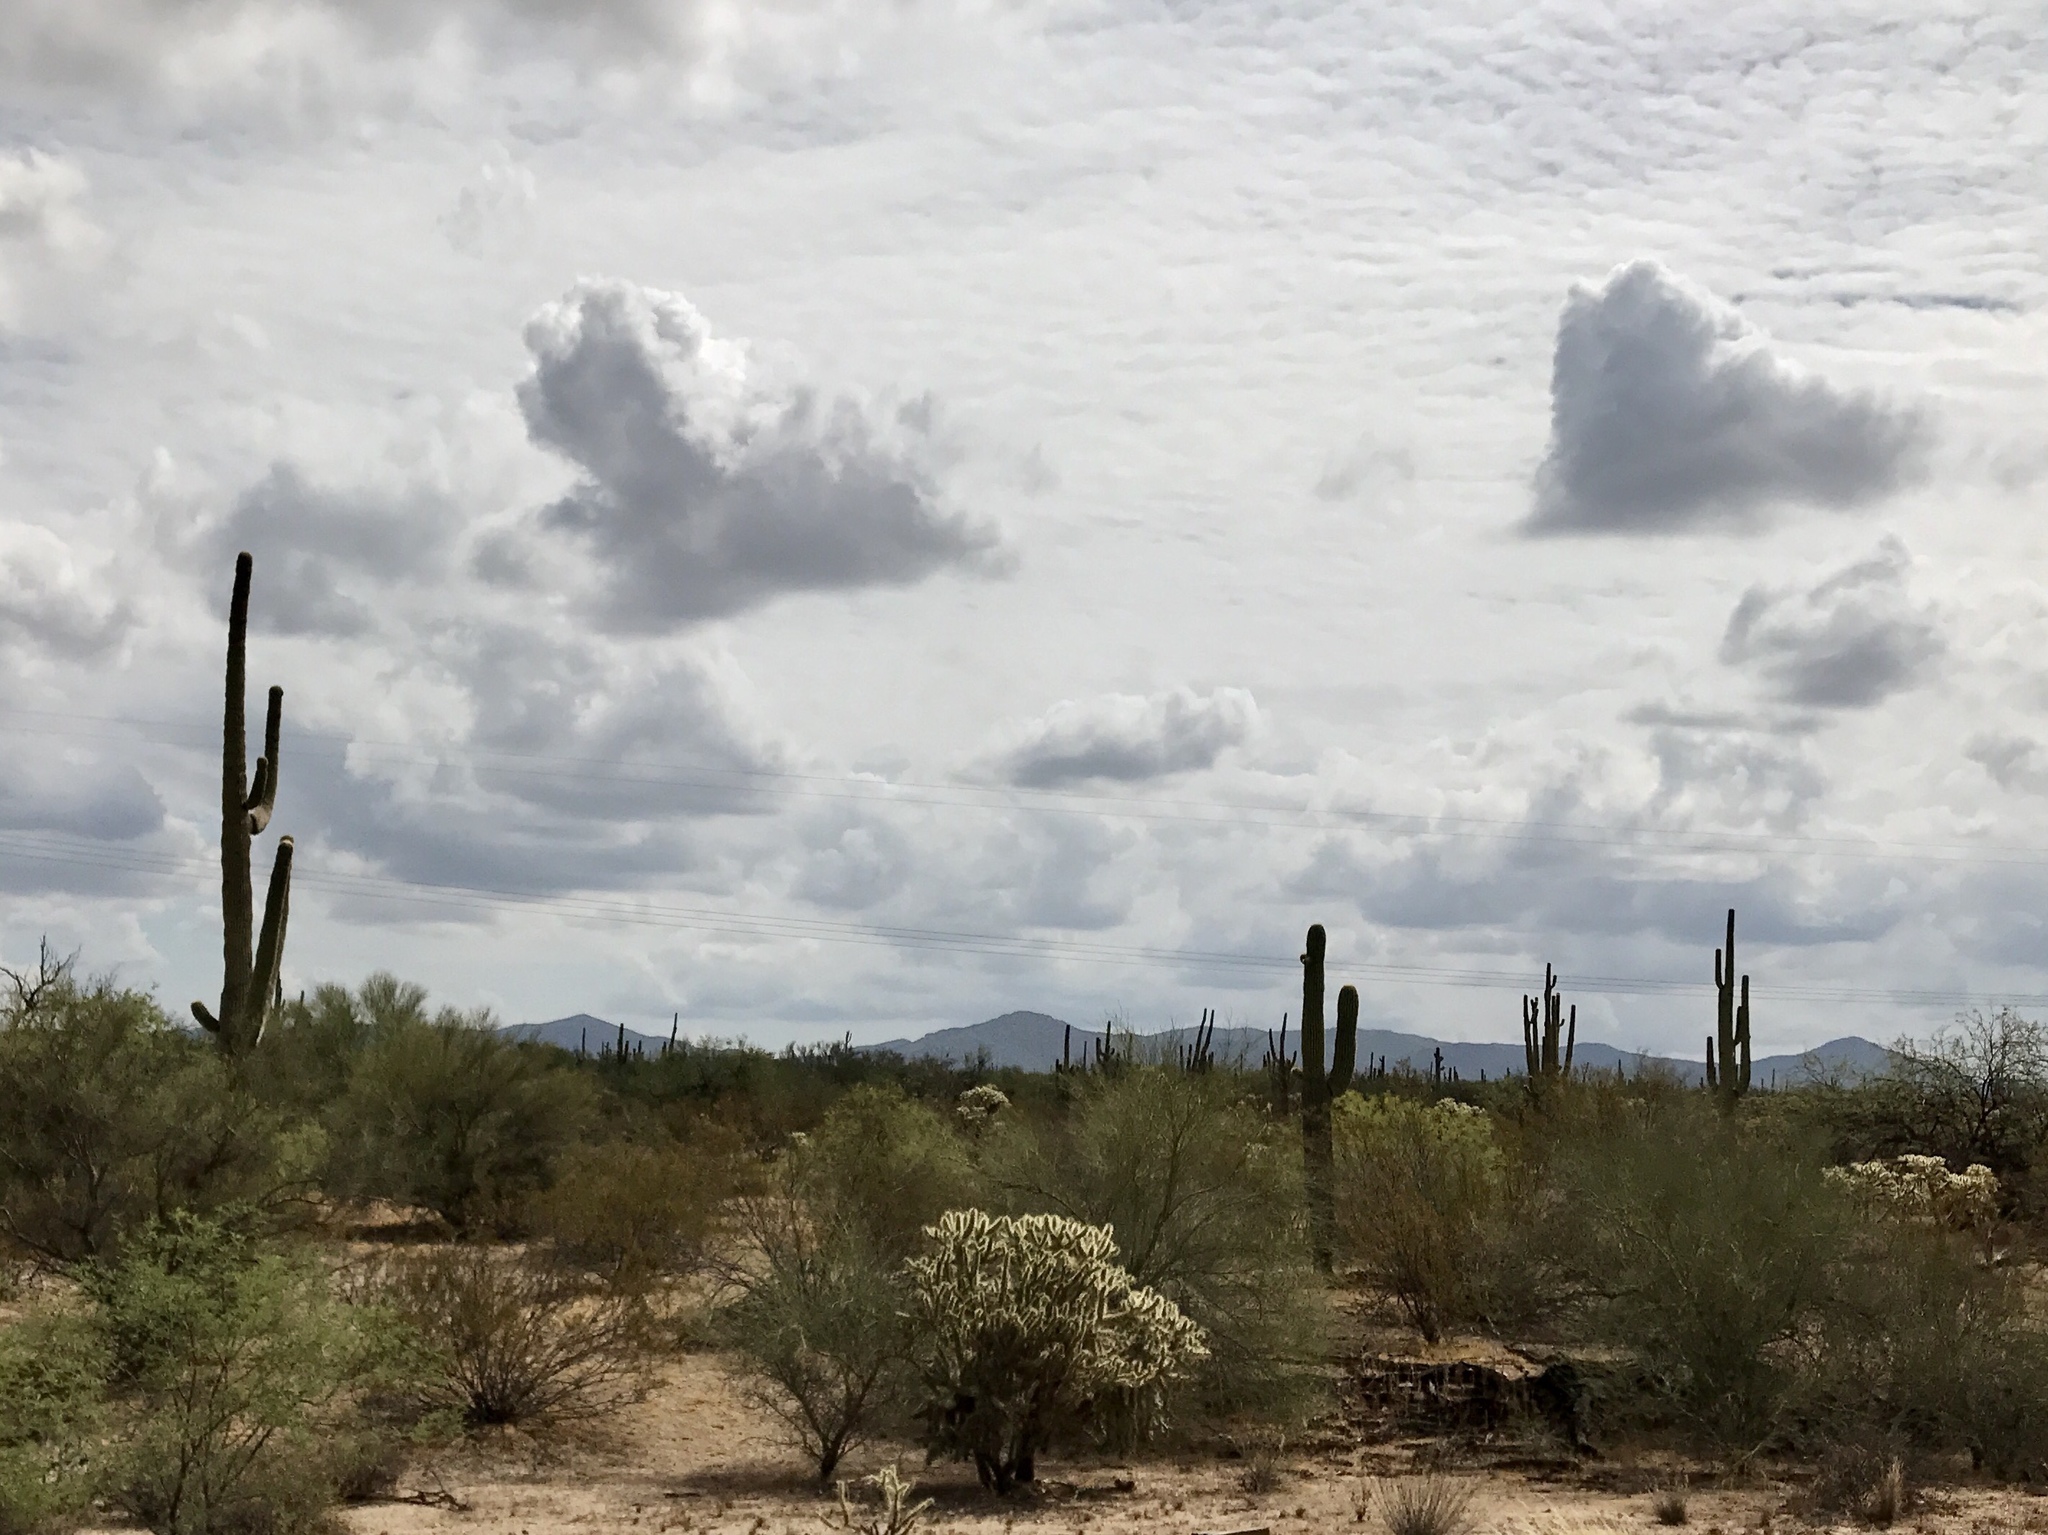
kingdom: Plantae
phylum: Tracheophyta
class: Magnoliopsida
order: Caryophyllales
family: Cactaceae
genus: Carnegiea
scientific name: Carnegiea gigantea
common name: Saguaro
